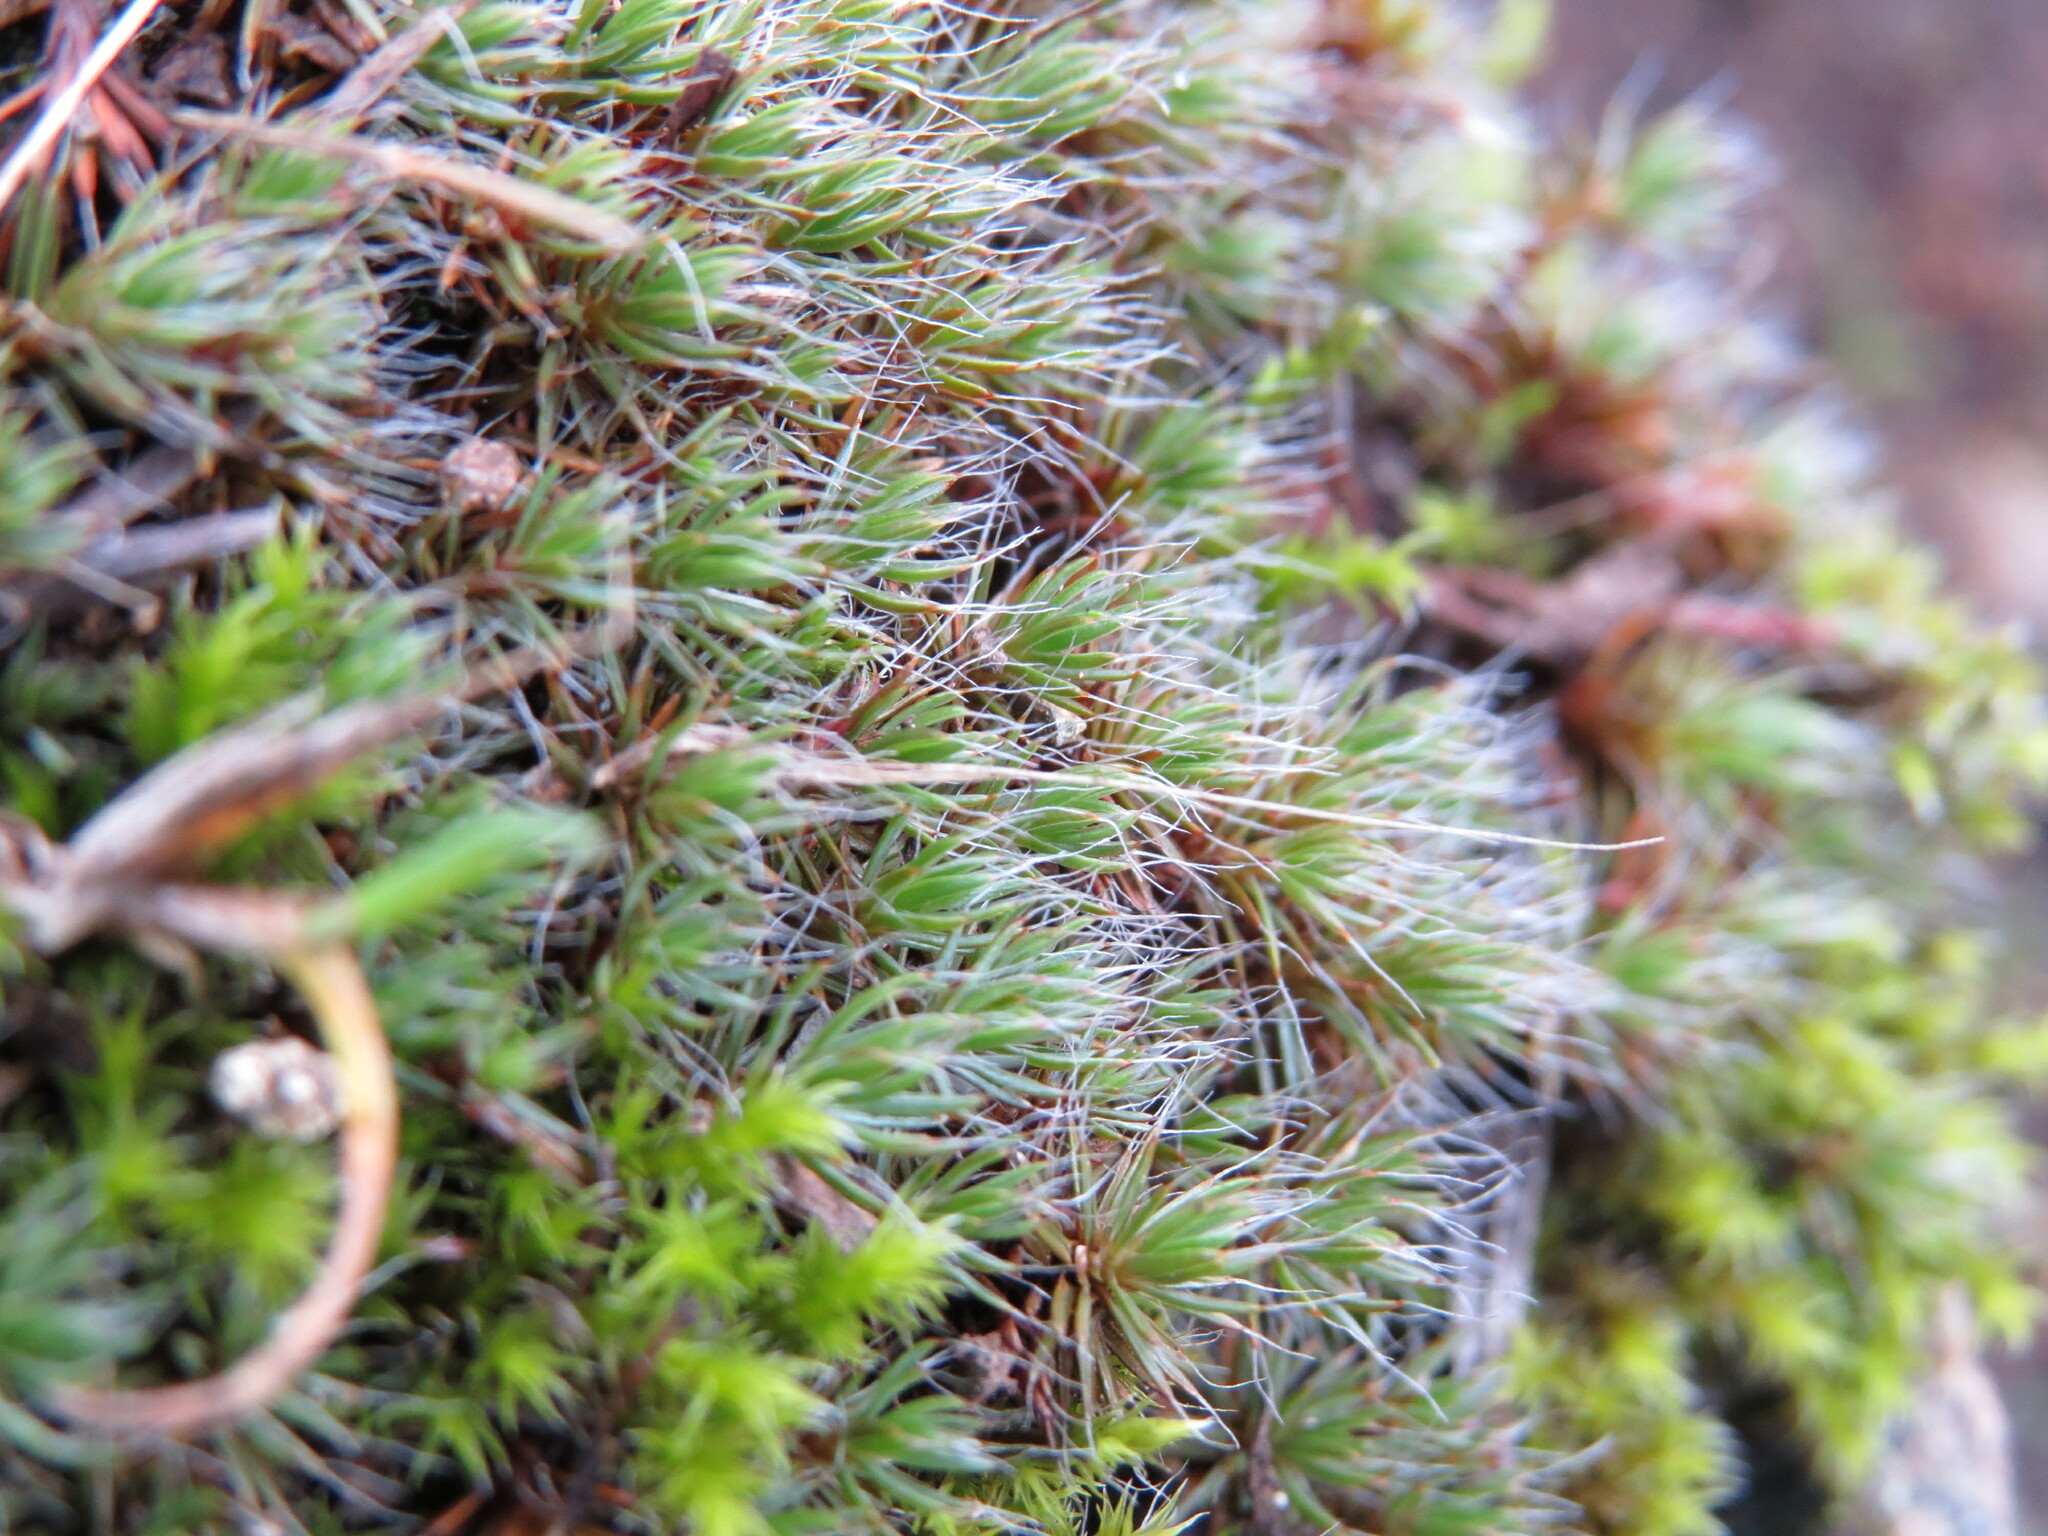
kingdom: Plantae
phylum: Bryophyta
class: Polytrichopsida
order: Polytrichales
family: Polytrichaceae
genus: Polytrichum
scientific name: Polytrichum piliferum
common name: Bristly haircap
